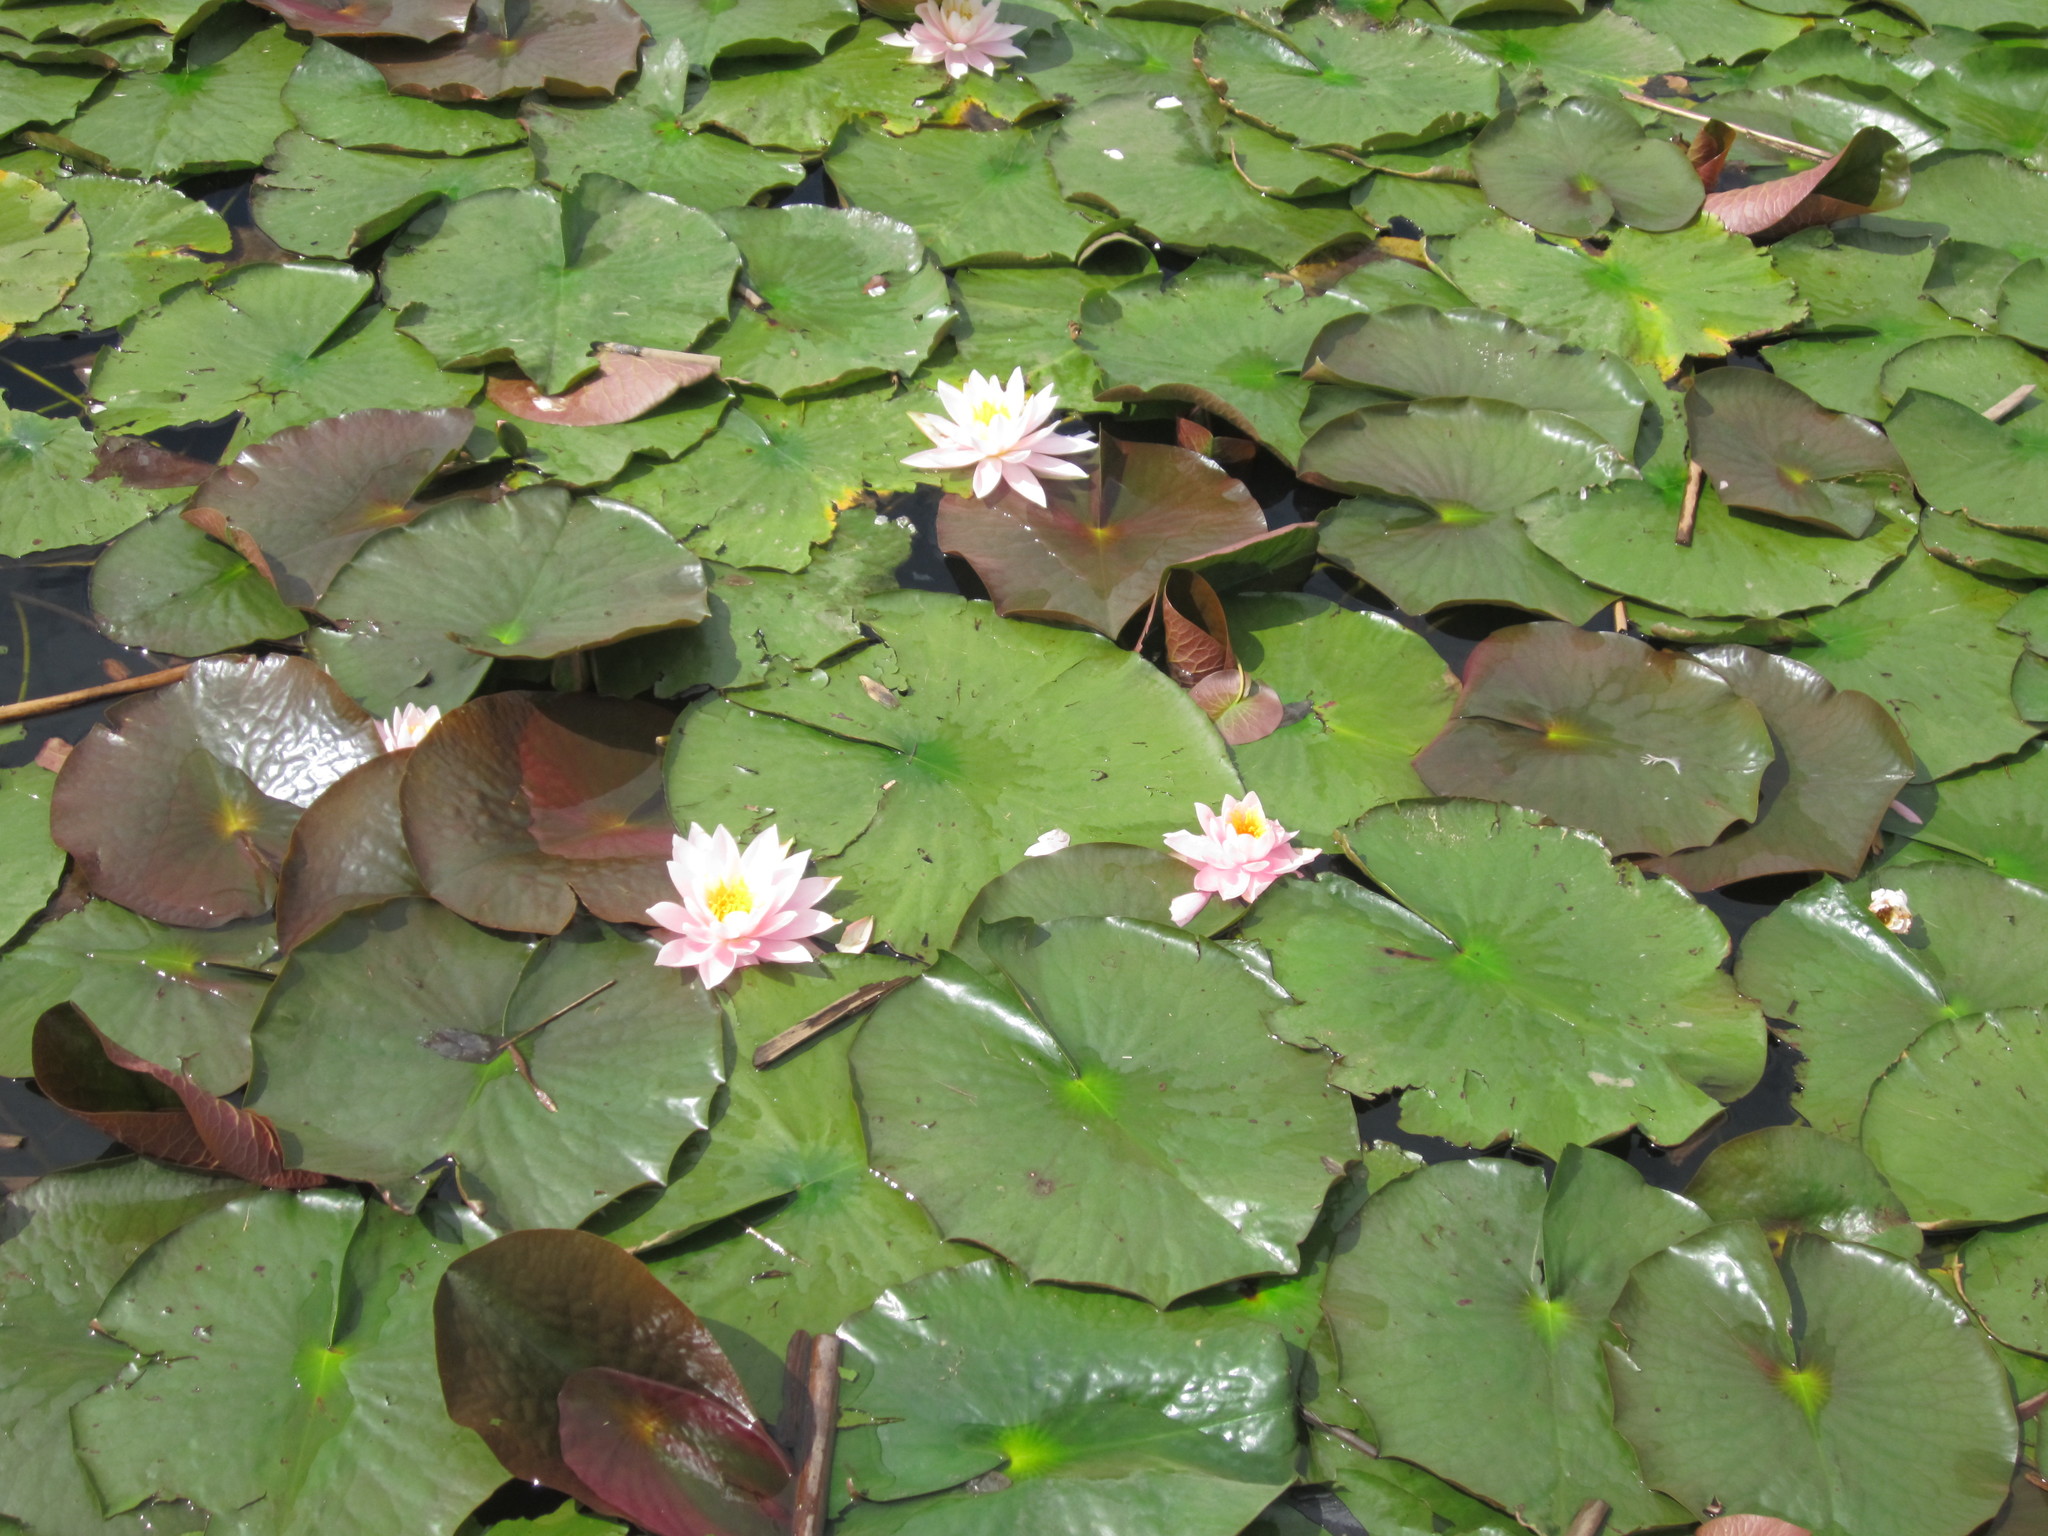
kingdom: Plantae
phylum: Tracheophyta
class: Magnoliopsida
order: Nymphaeales
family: Nymphaeaceae
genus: Nymphaea
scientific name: Nymphaea alba
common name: White water-lily
